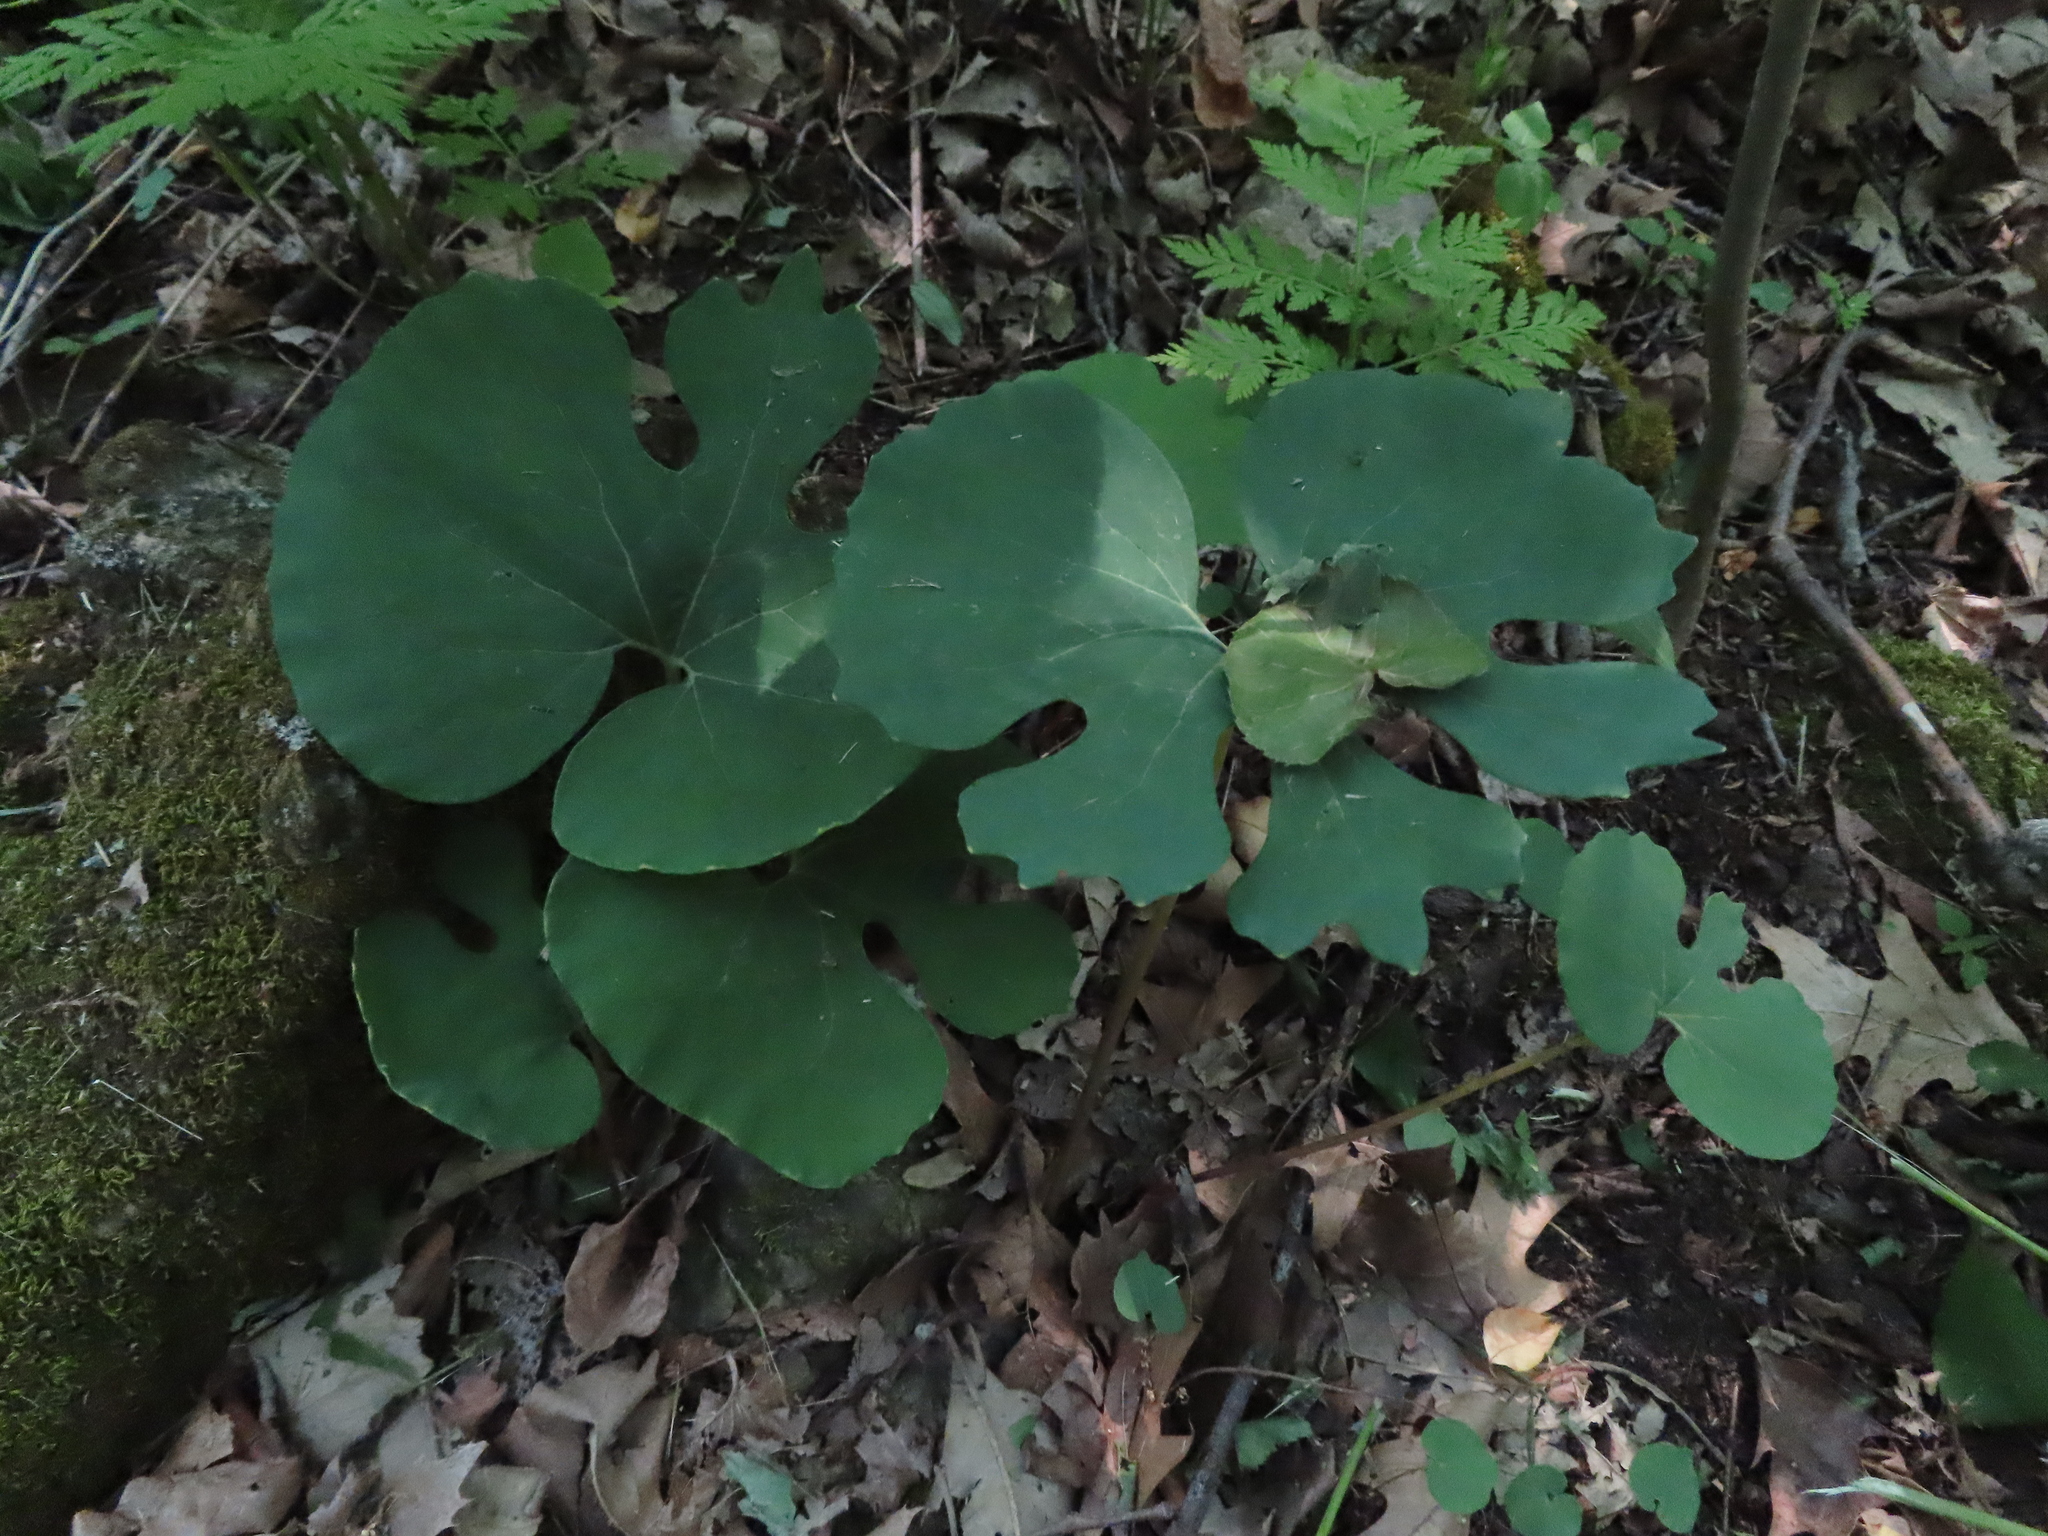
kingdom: Plantae
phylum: Tracheophyta
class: Magnoliopsida
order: Ranunculales
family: Papaveraceae
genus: Sanguinaria
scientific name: Sanguinaria canadensis
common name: Bloodroot
